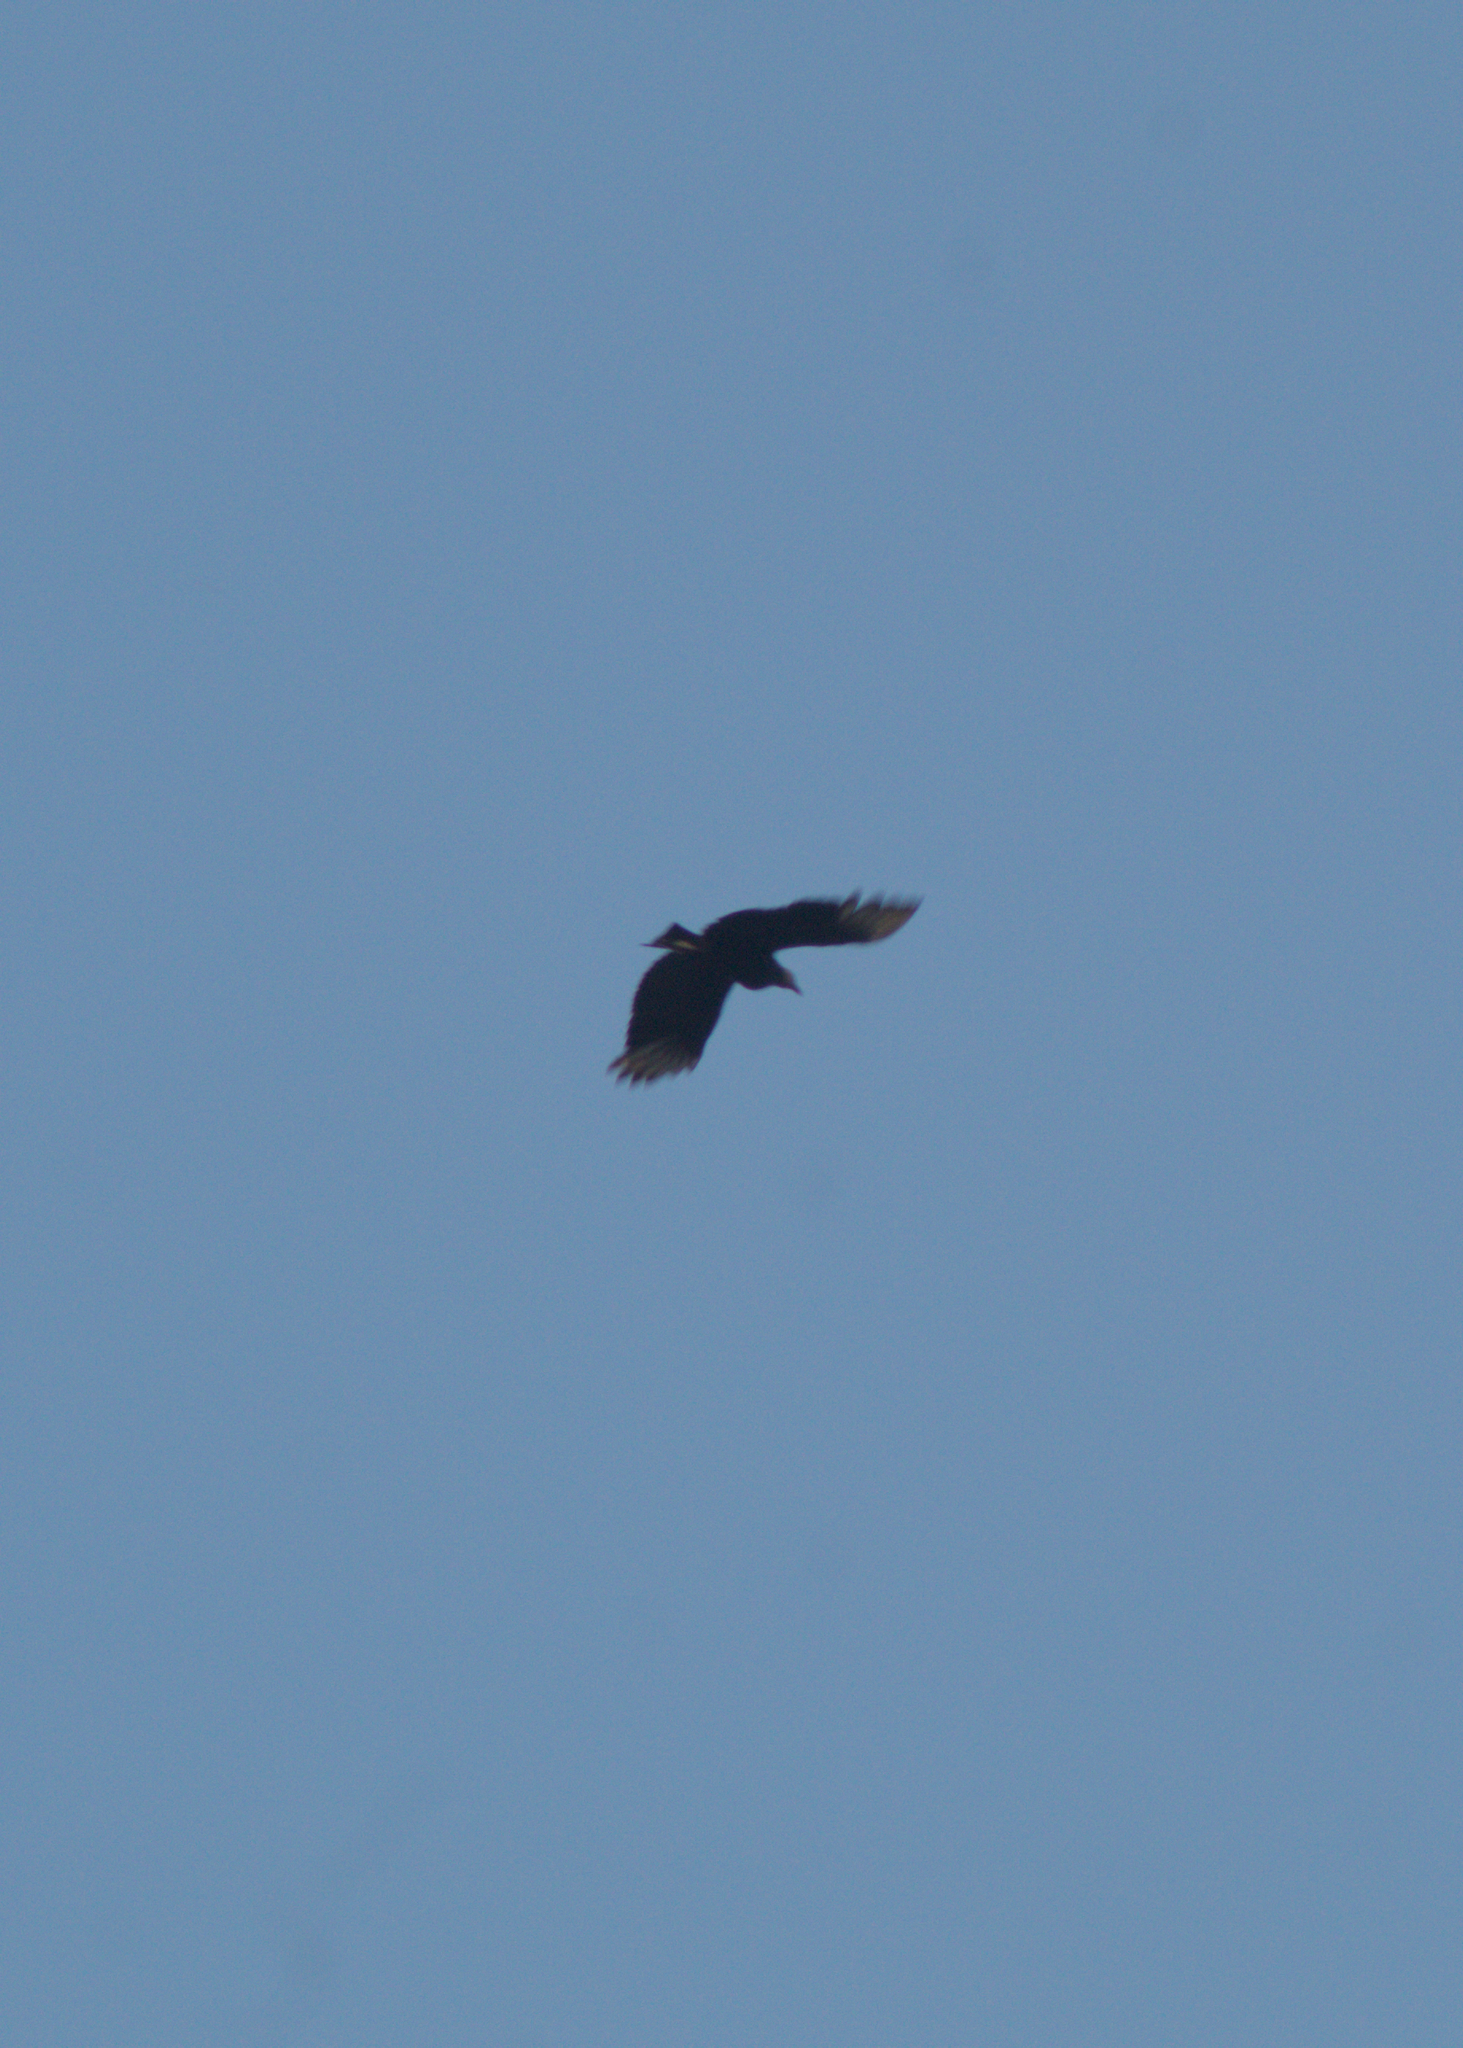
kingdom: Animalia
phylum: Chordata
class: Aves
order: Accipitriformes
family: Cathartidae
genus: Coragyps
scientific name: Coragyps atratus
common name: Black vulture
